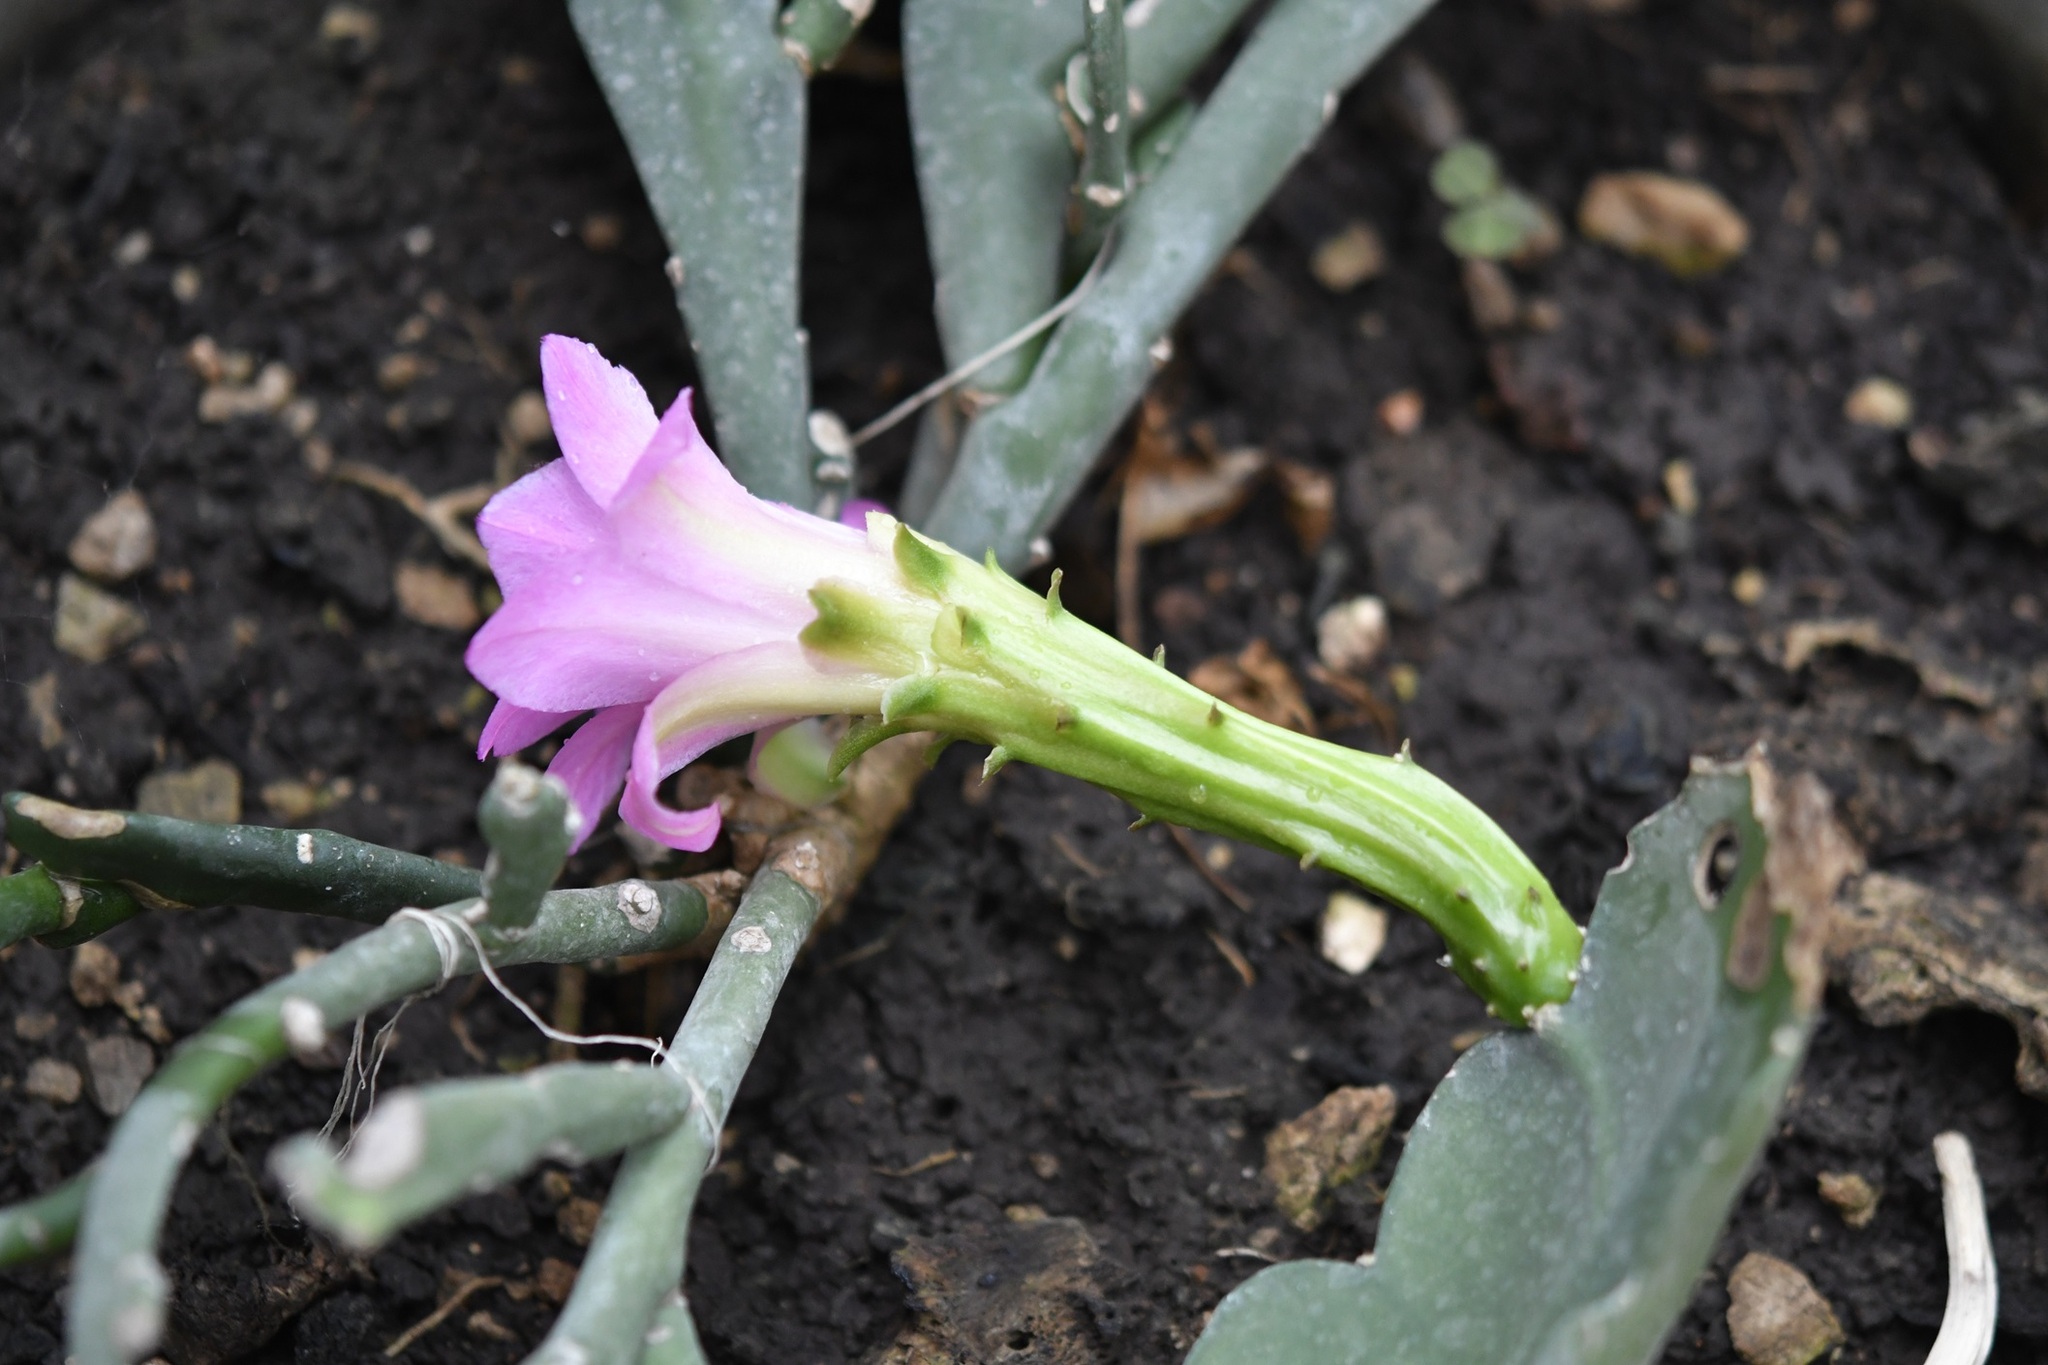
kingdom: Plantae
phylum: Tracheophyta
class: Magnoliopsida
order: Caryophyllales
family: Cactaceae
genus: Disocactus
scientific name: Disocactus nelsonii
